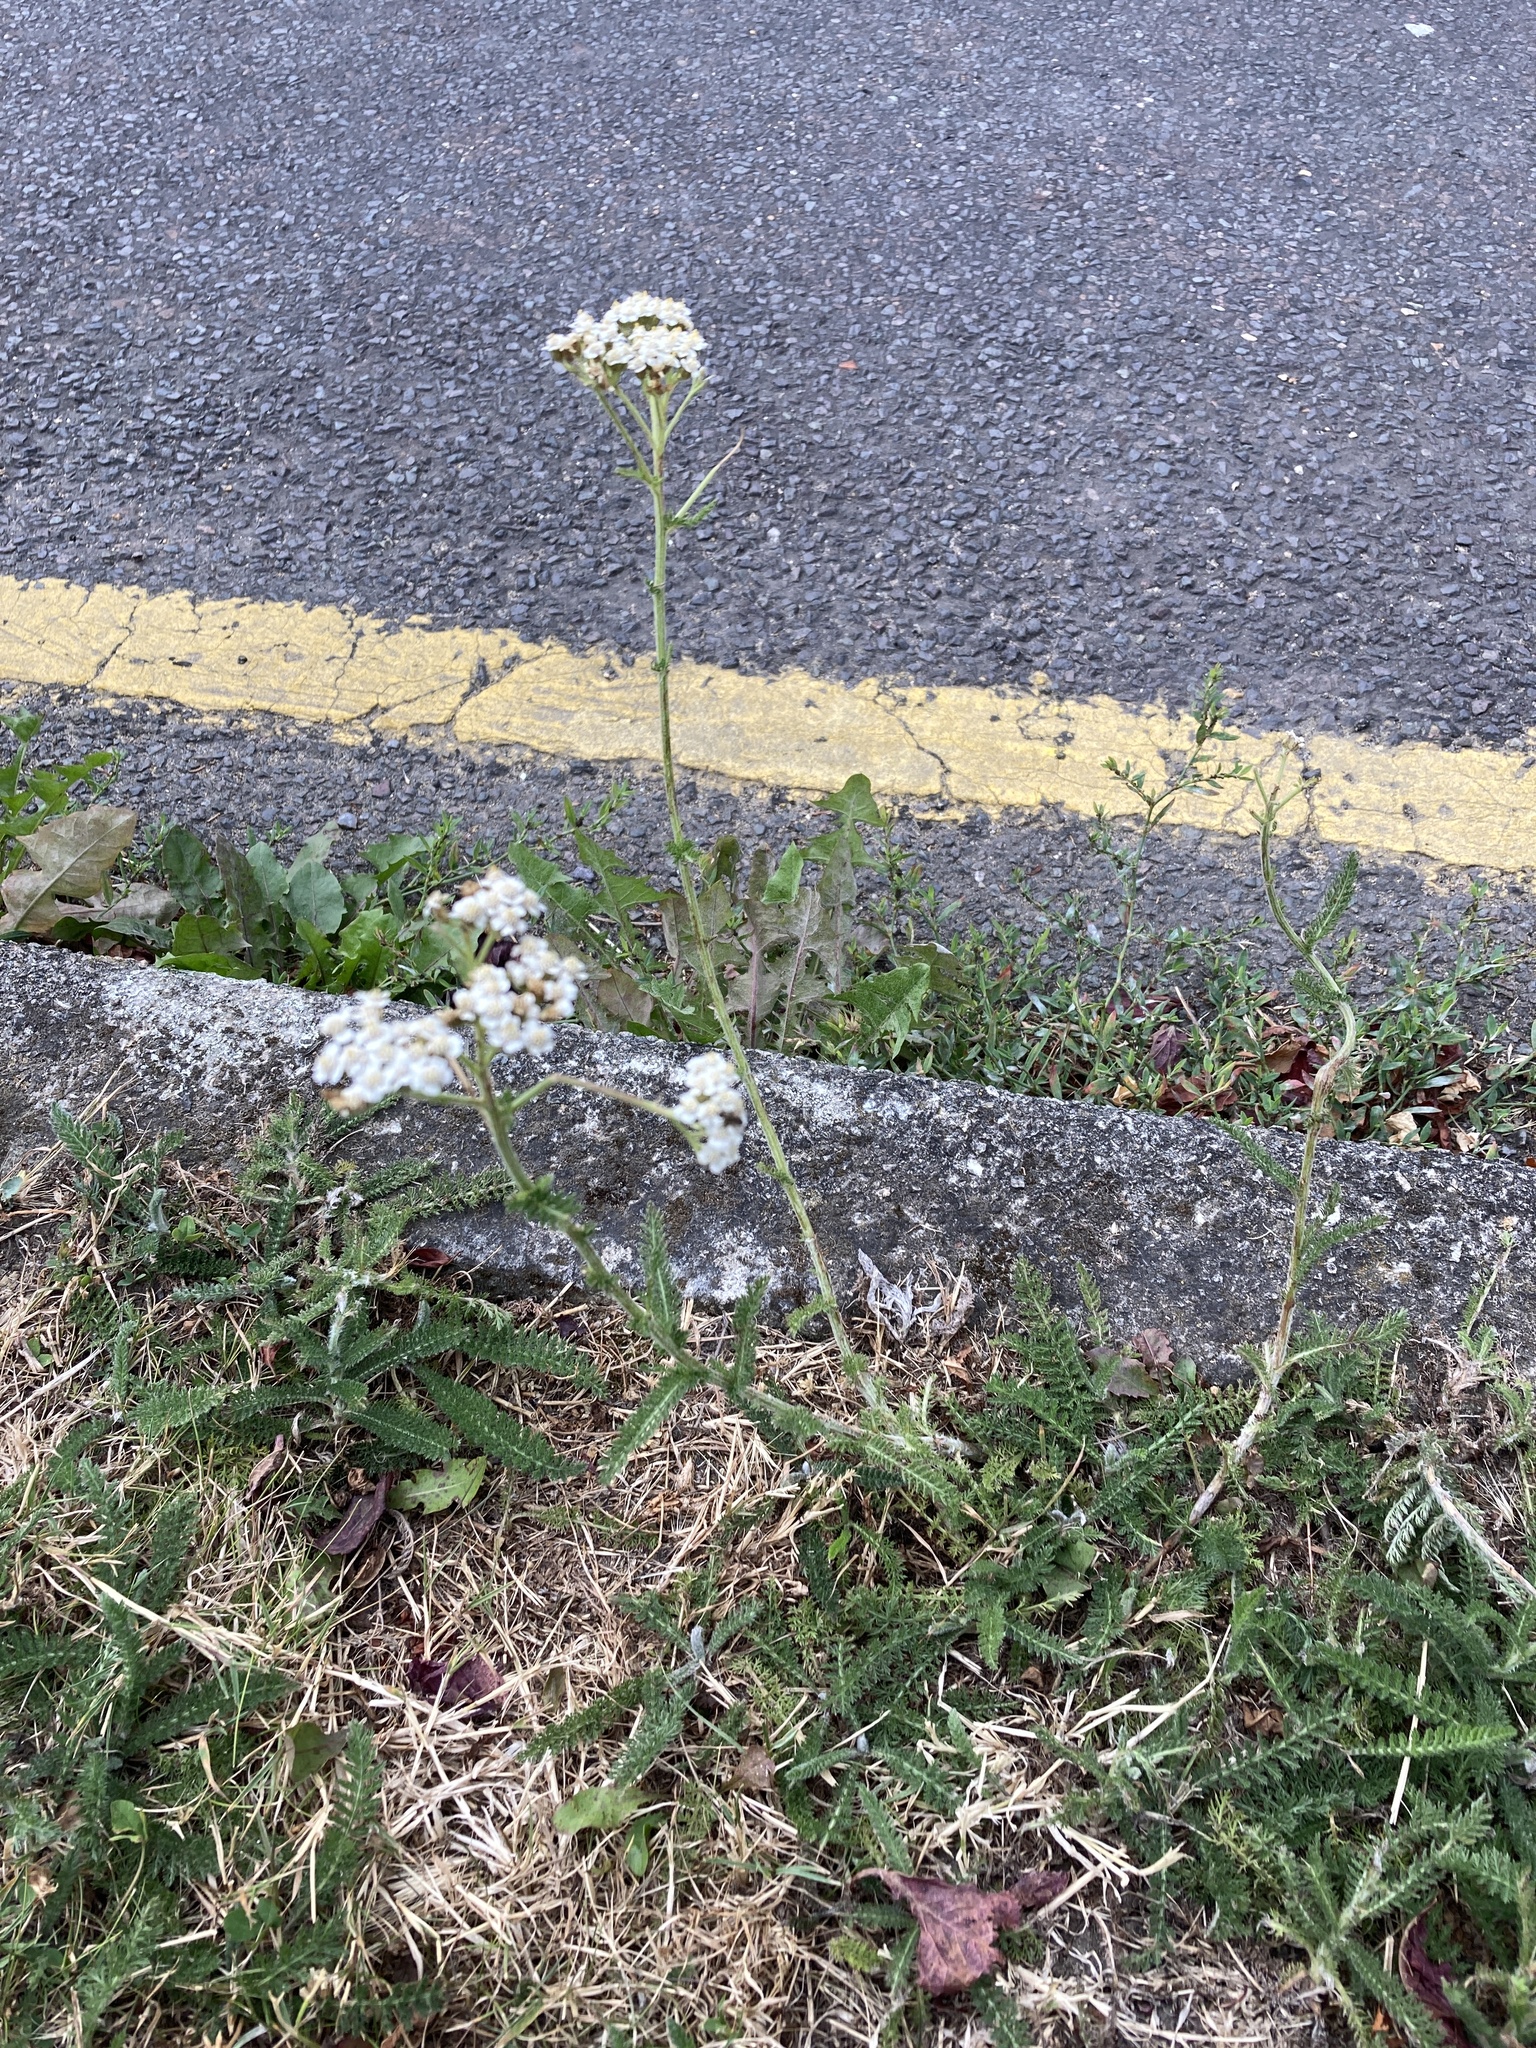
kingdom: Plantae
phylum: Tracheophyta
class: Magnoliopsida
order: Asterales
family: Asteraceae
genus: Achillea
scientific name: Achillea millefolium
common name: Yarrow
